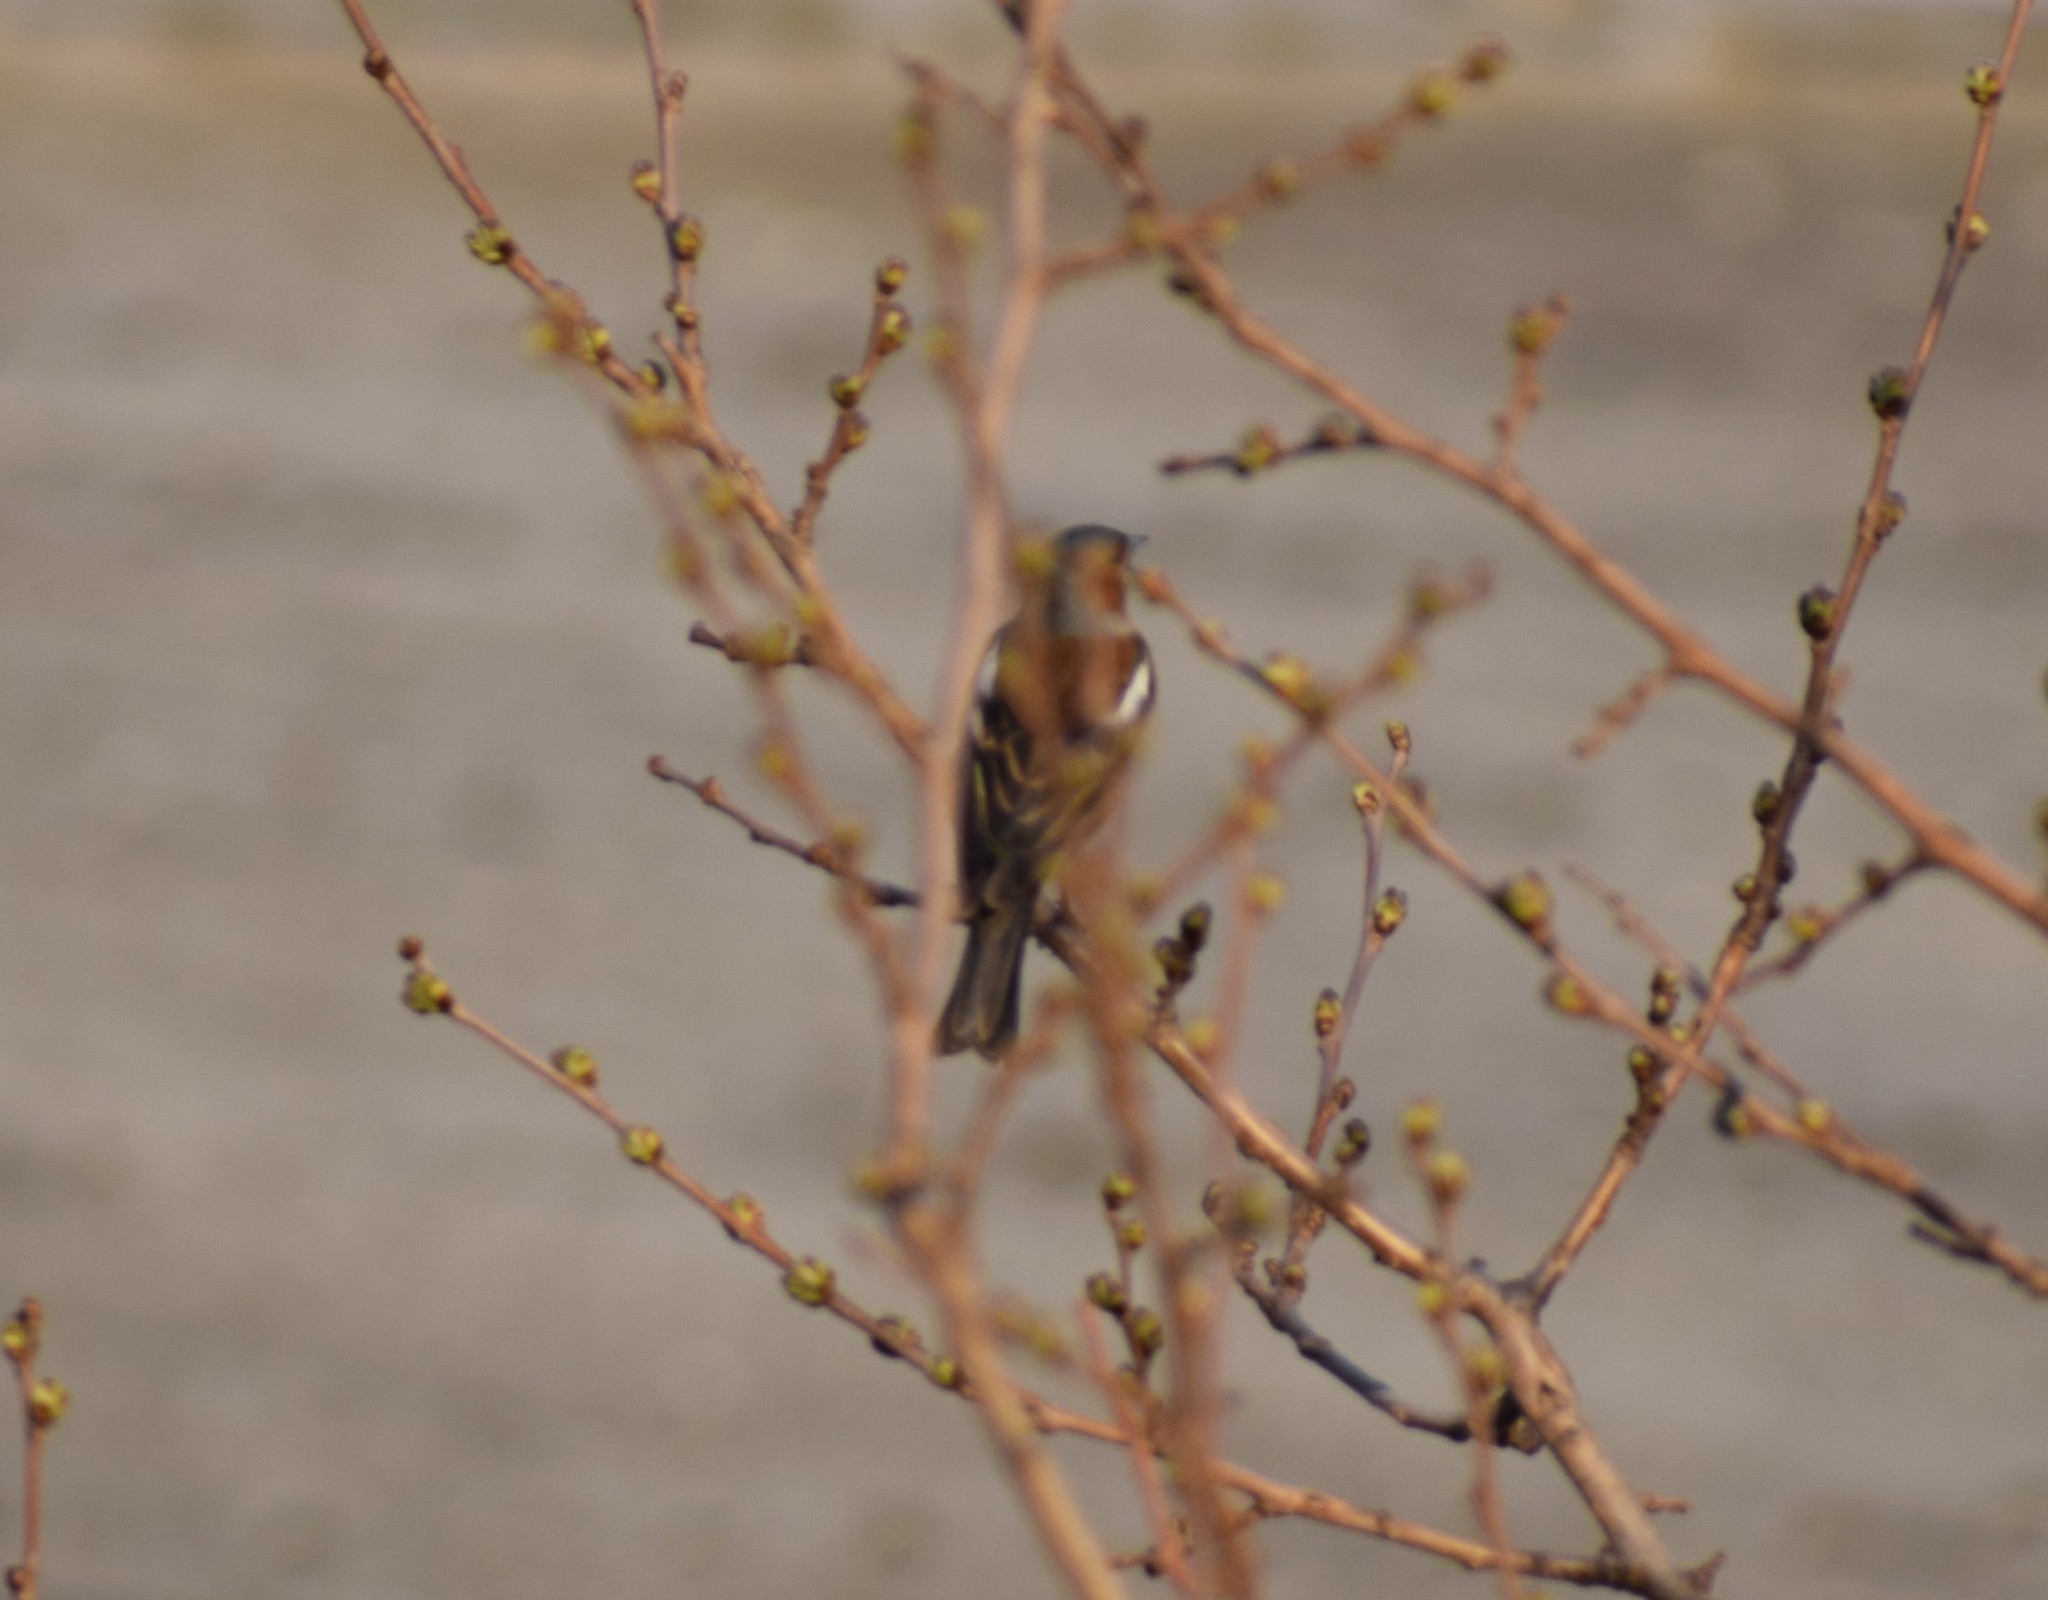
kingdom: Animalia
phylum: Chordata
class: Aves
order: Passeriformes
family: Fringillidae
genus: Fringilla
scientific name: Fringilla coelebs
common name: Common chaffinch
